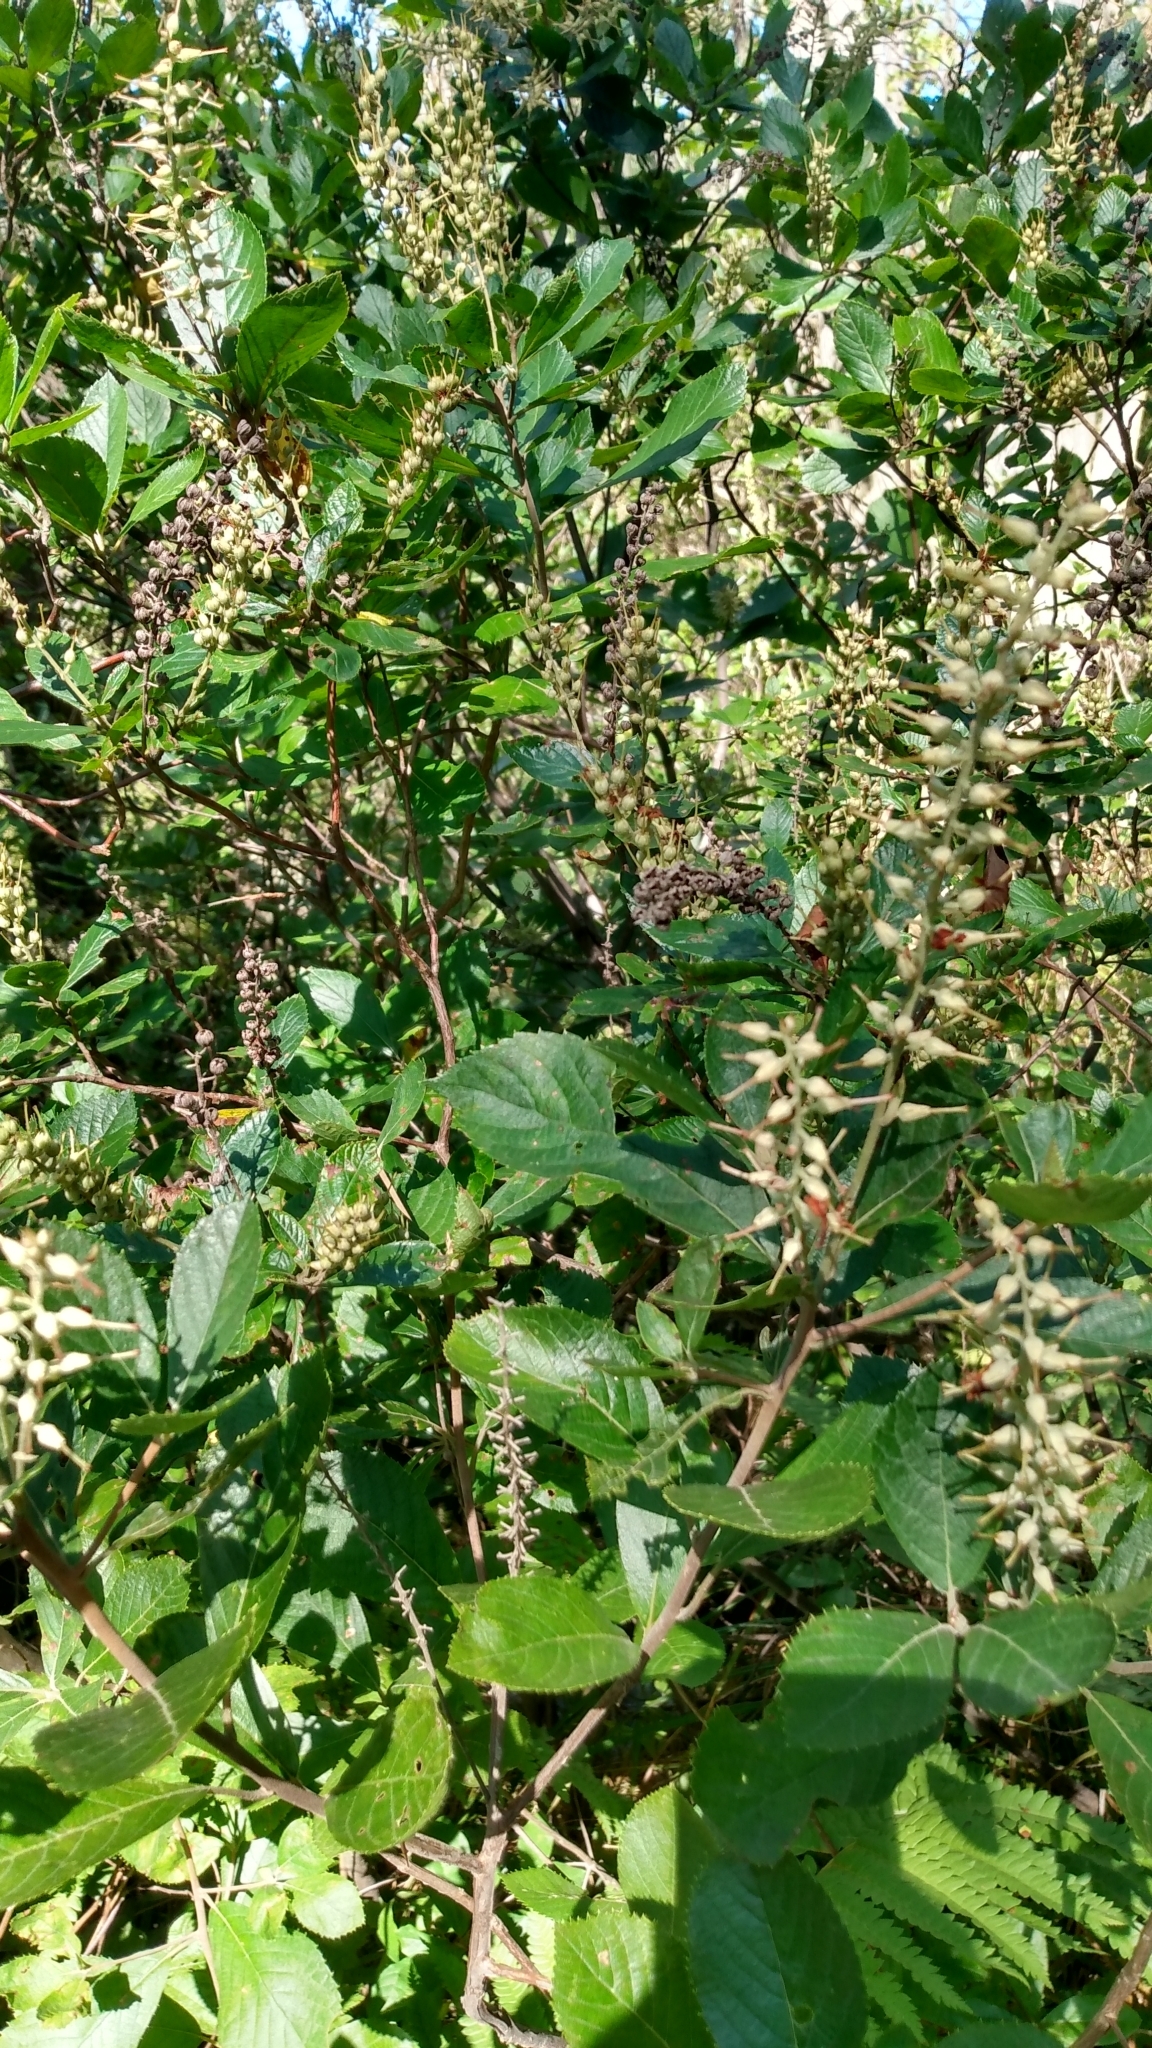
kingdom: Plantae
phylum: Tracheophyta
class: Magnoliopsida
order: Ericales
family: Clethraceae
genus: Clethra
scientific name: Clethra alnifolia
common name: Sweet pepperbush
